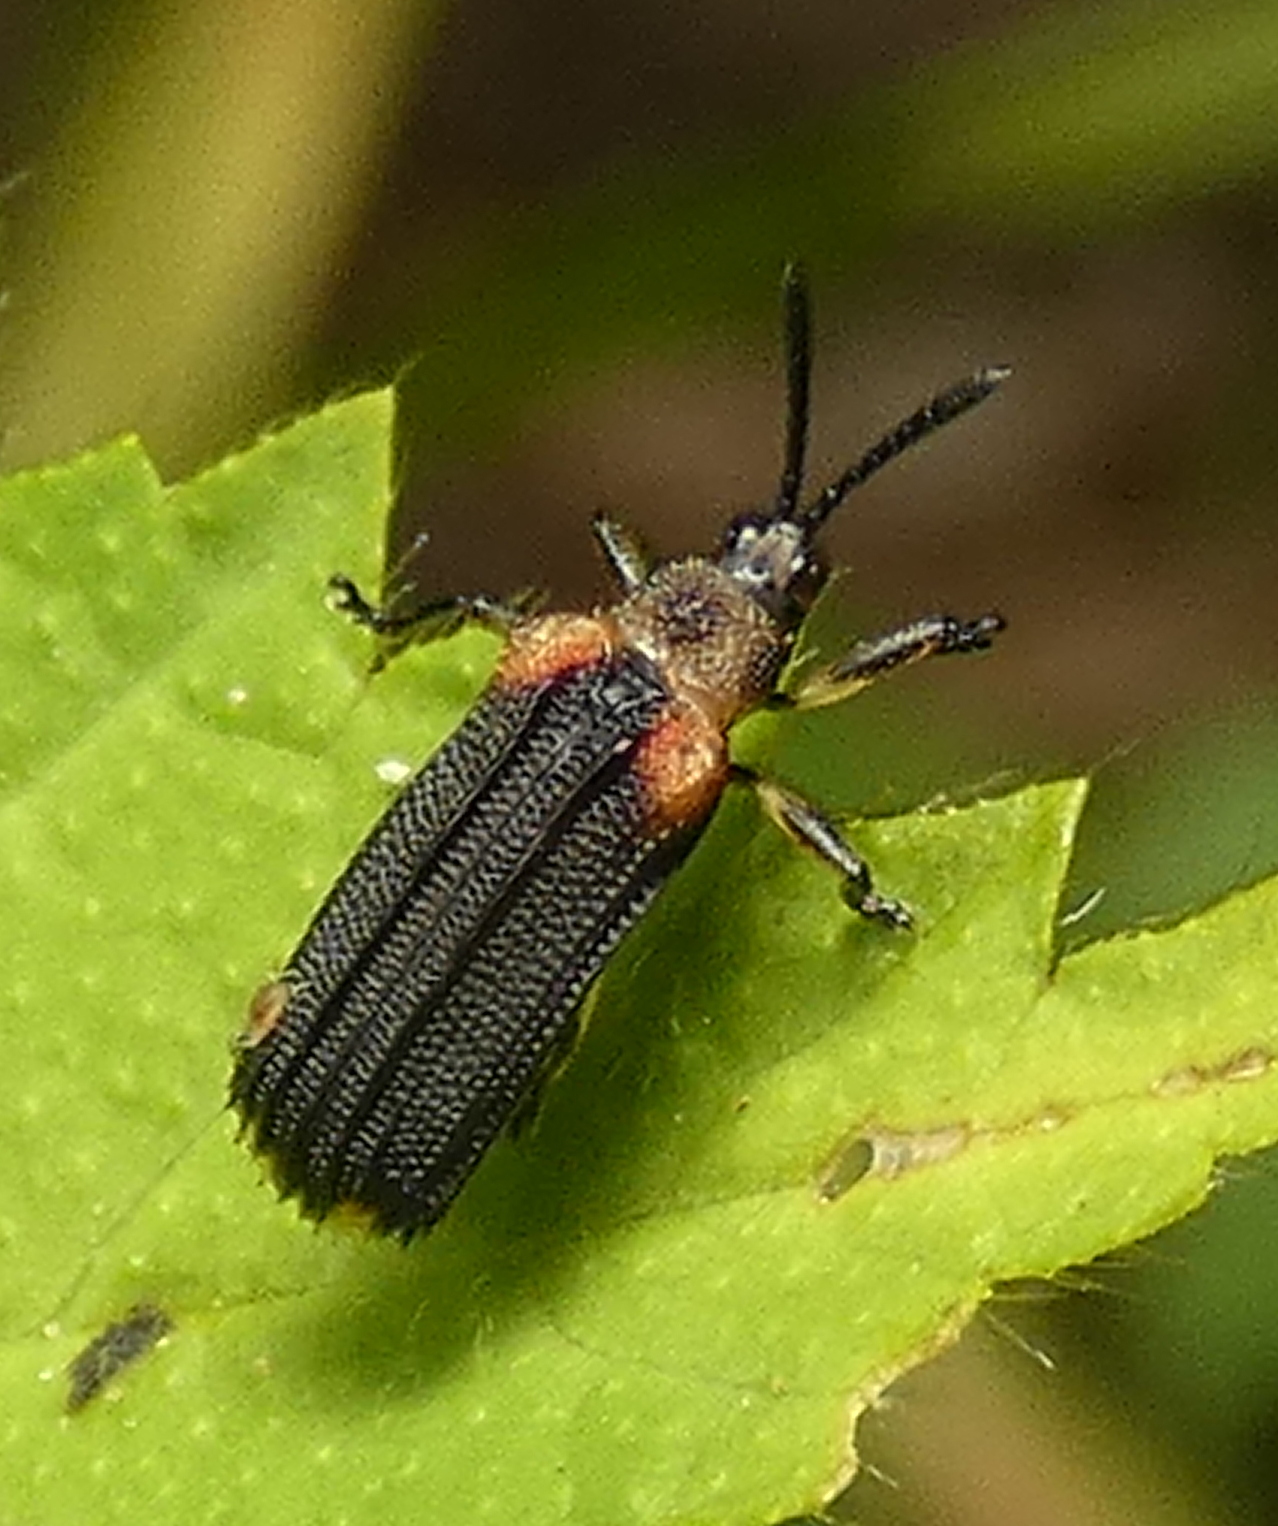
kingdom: Animalia
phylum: Arthropoda
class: Insecta
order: Coleoptera
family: Chrysomelidae
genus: Heterispa
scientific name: Heterispa vinula
